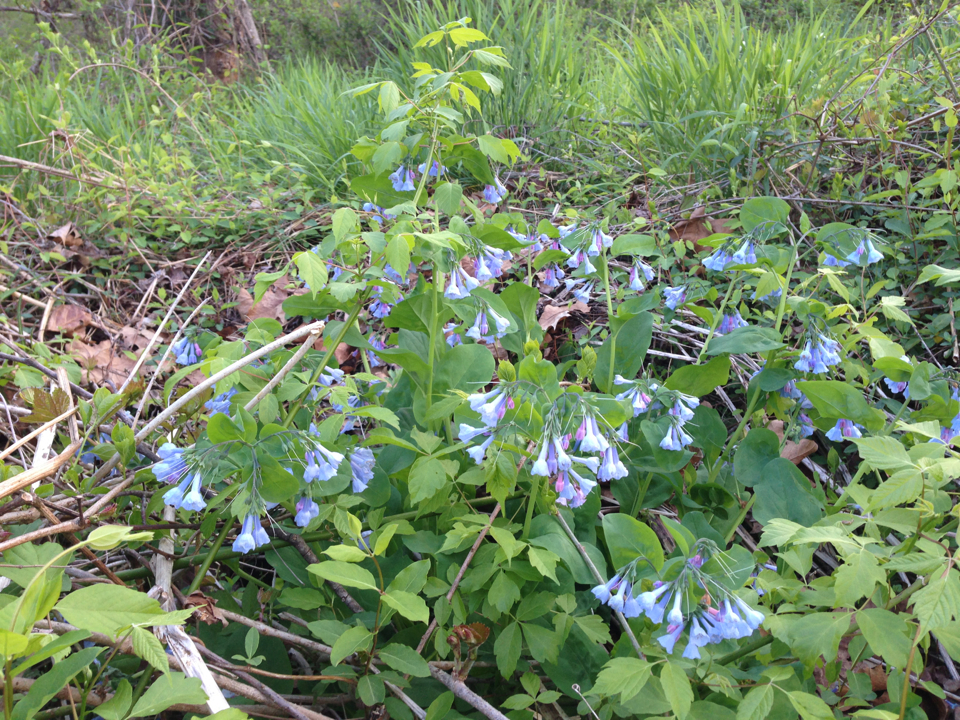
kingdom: Plantae
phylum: Tracheophyta
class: Magnoliopsida
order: Boraginales
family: Boraginaceae
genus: Mertensia
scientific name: Mertensia virginica
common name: Virginia bluebells
